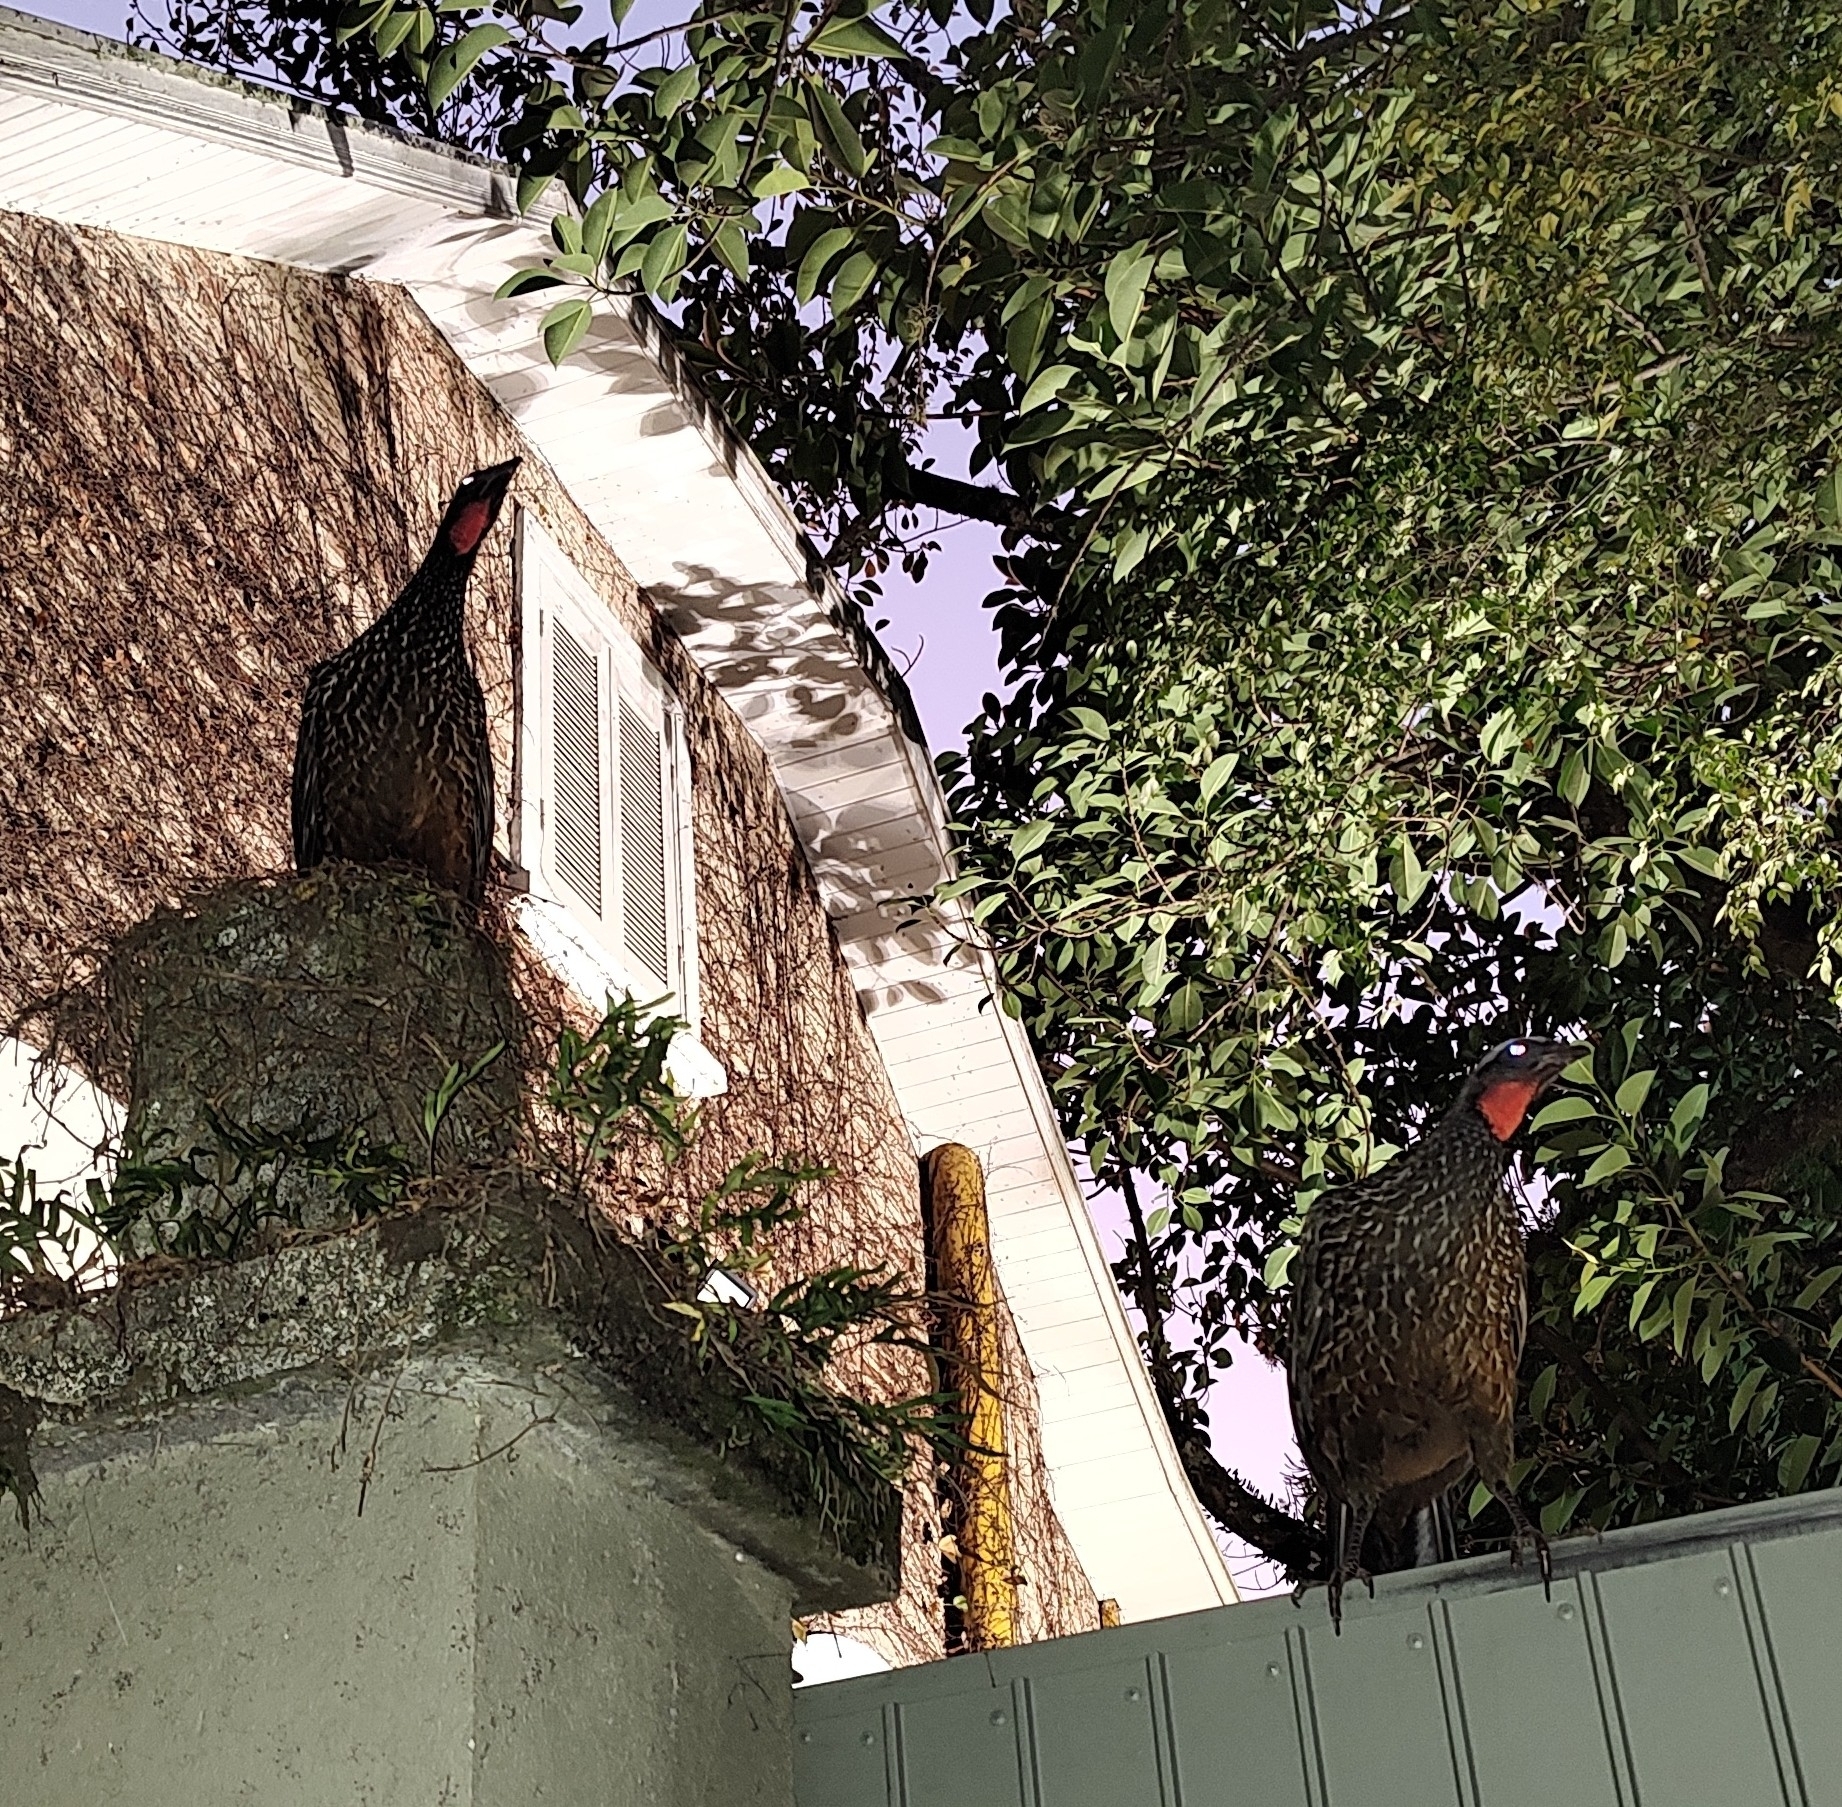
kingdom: Animalia
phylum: Chordata
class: Aves
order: Galliformes
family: Cracidae
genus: Penelope
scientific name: Penelope obscura
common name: Dusky-legged guan
